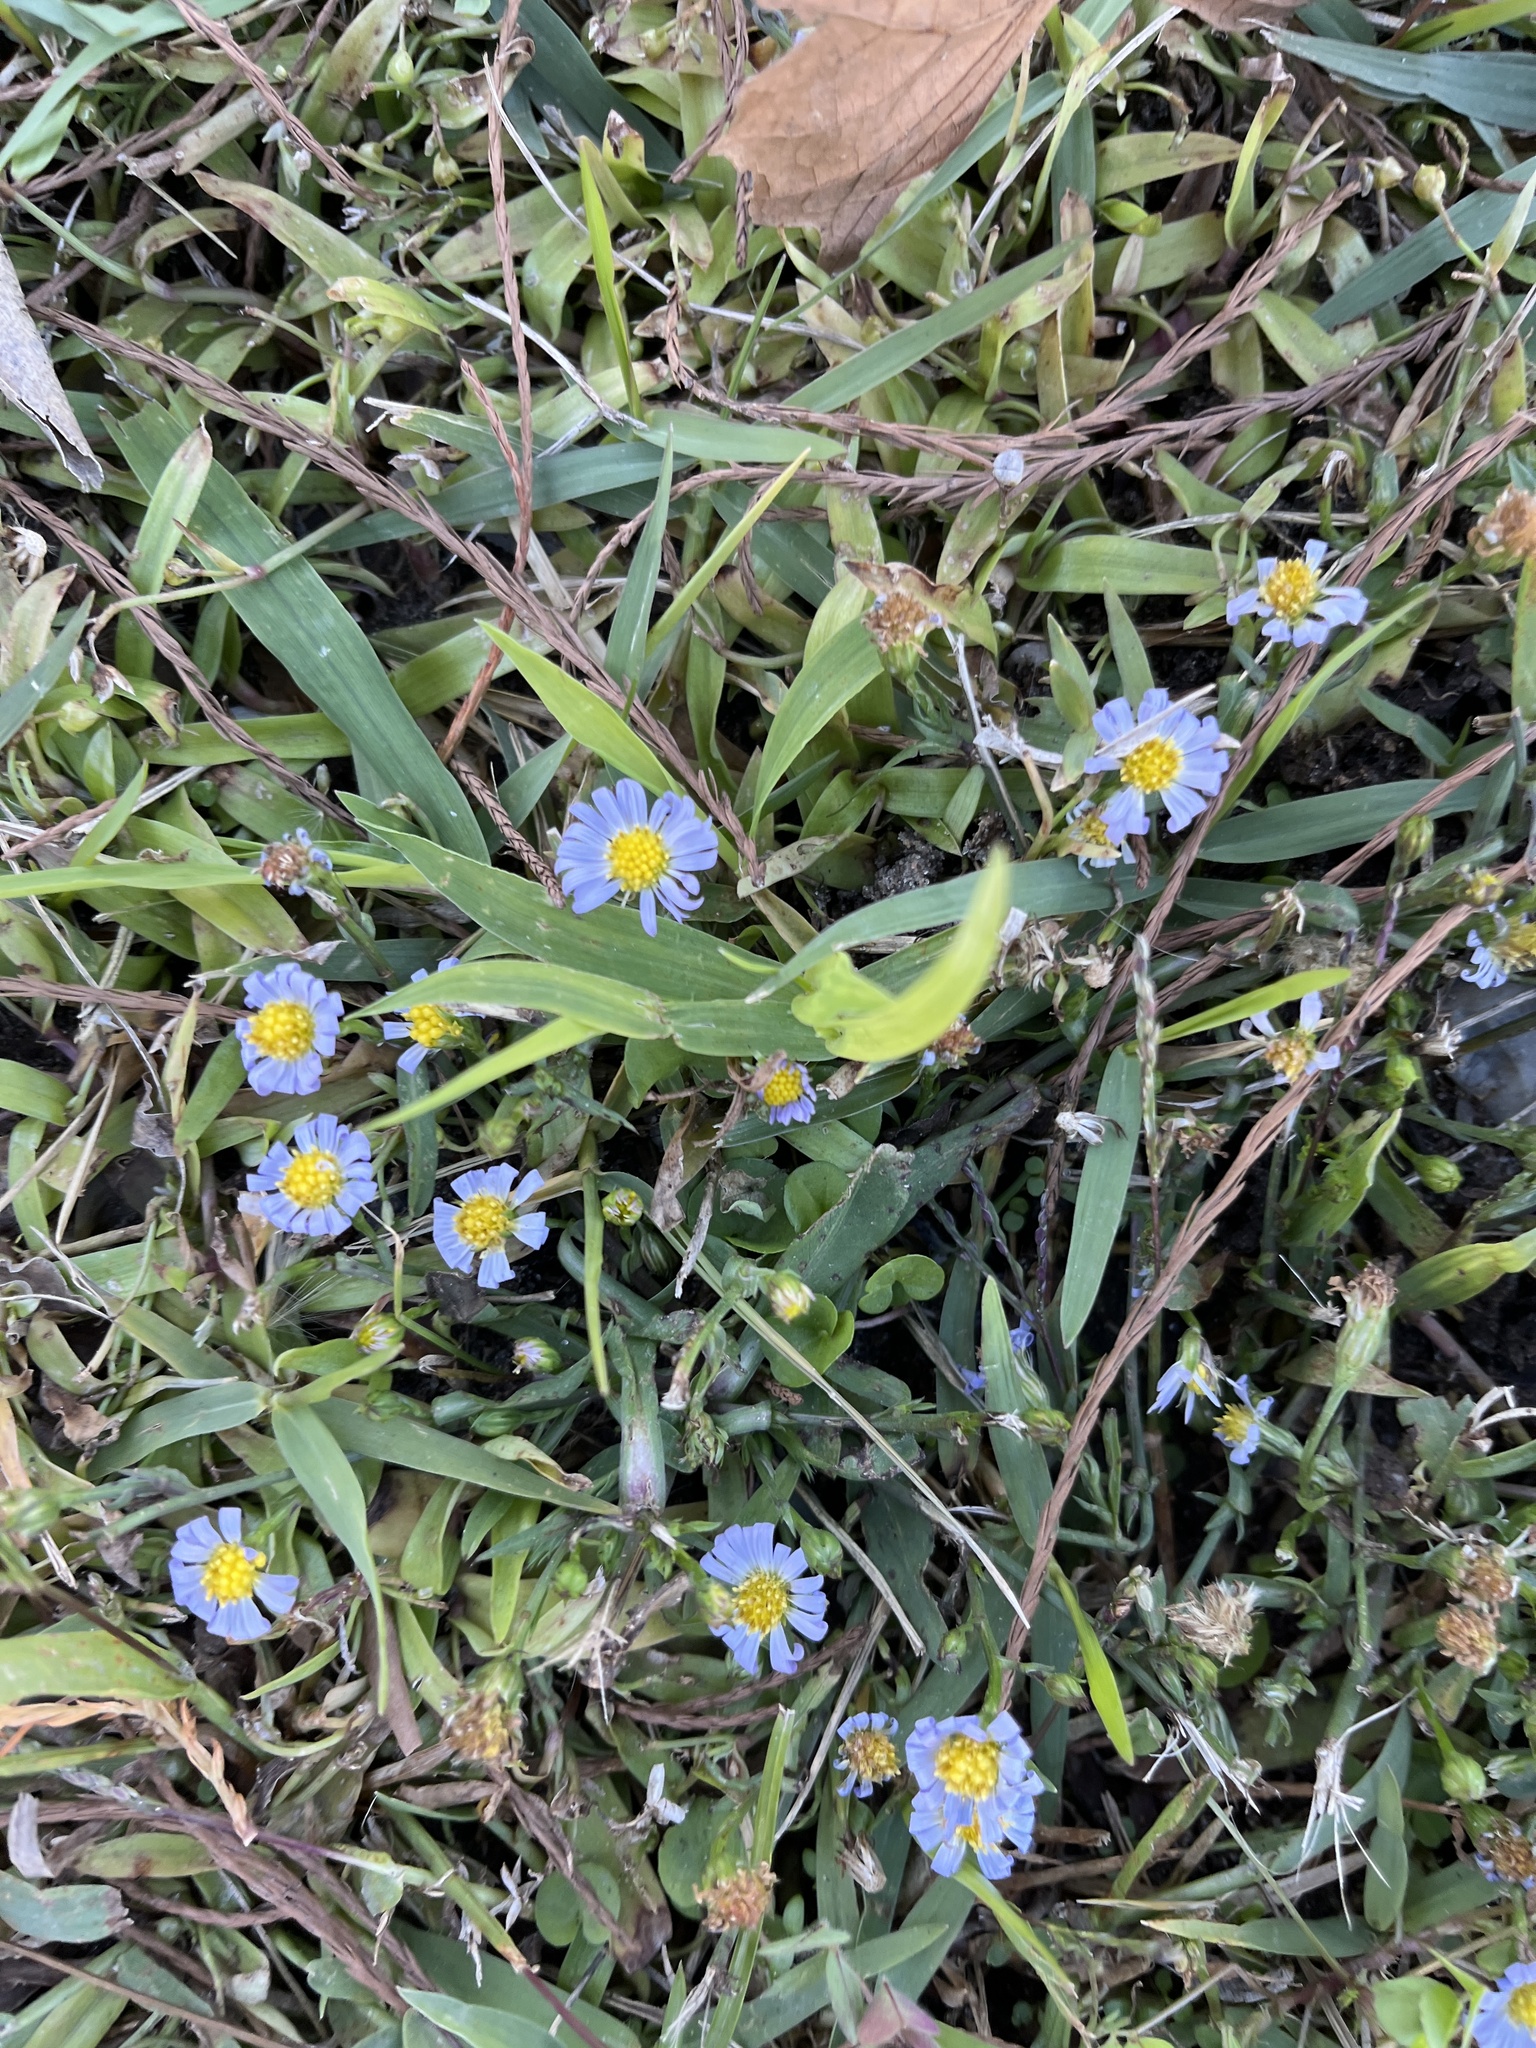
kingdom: Plantae
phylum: Tracheophyta
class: Magnoliopsida
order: Asterales
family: Asteraceae
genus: Symphyotrichum
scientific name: Symphyotrichum divaricatum
